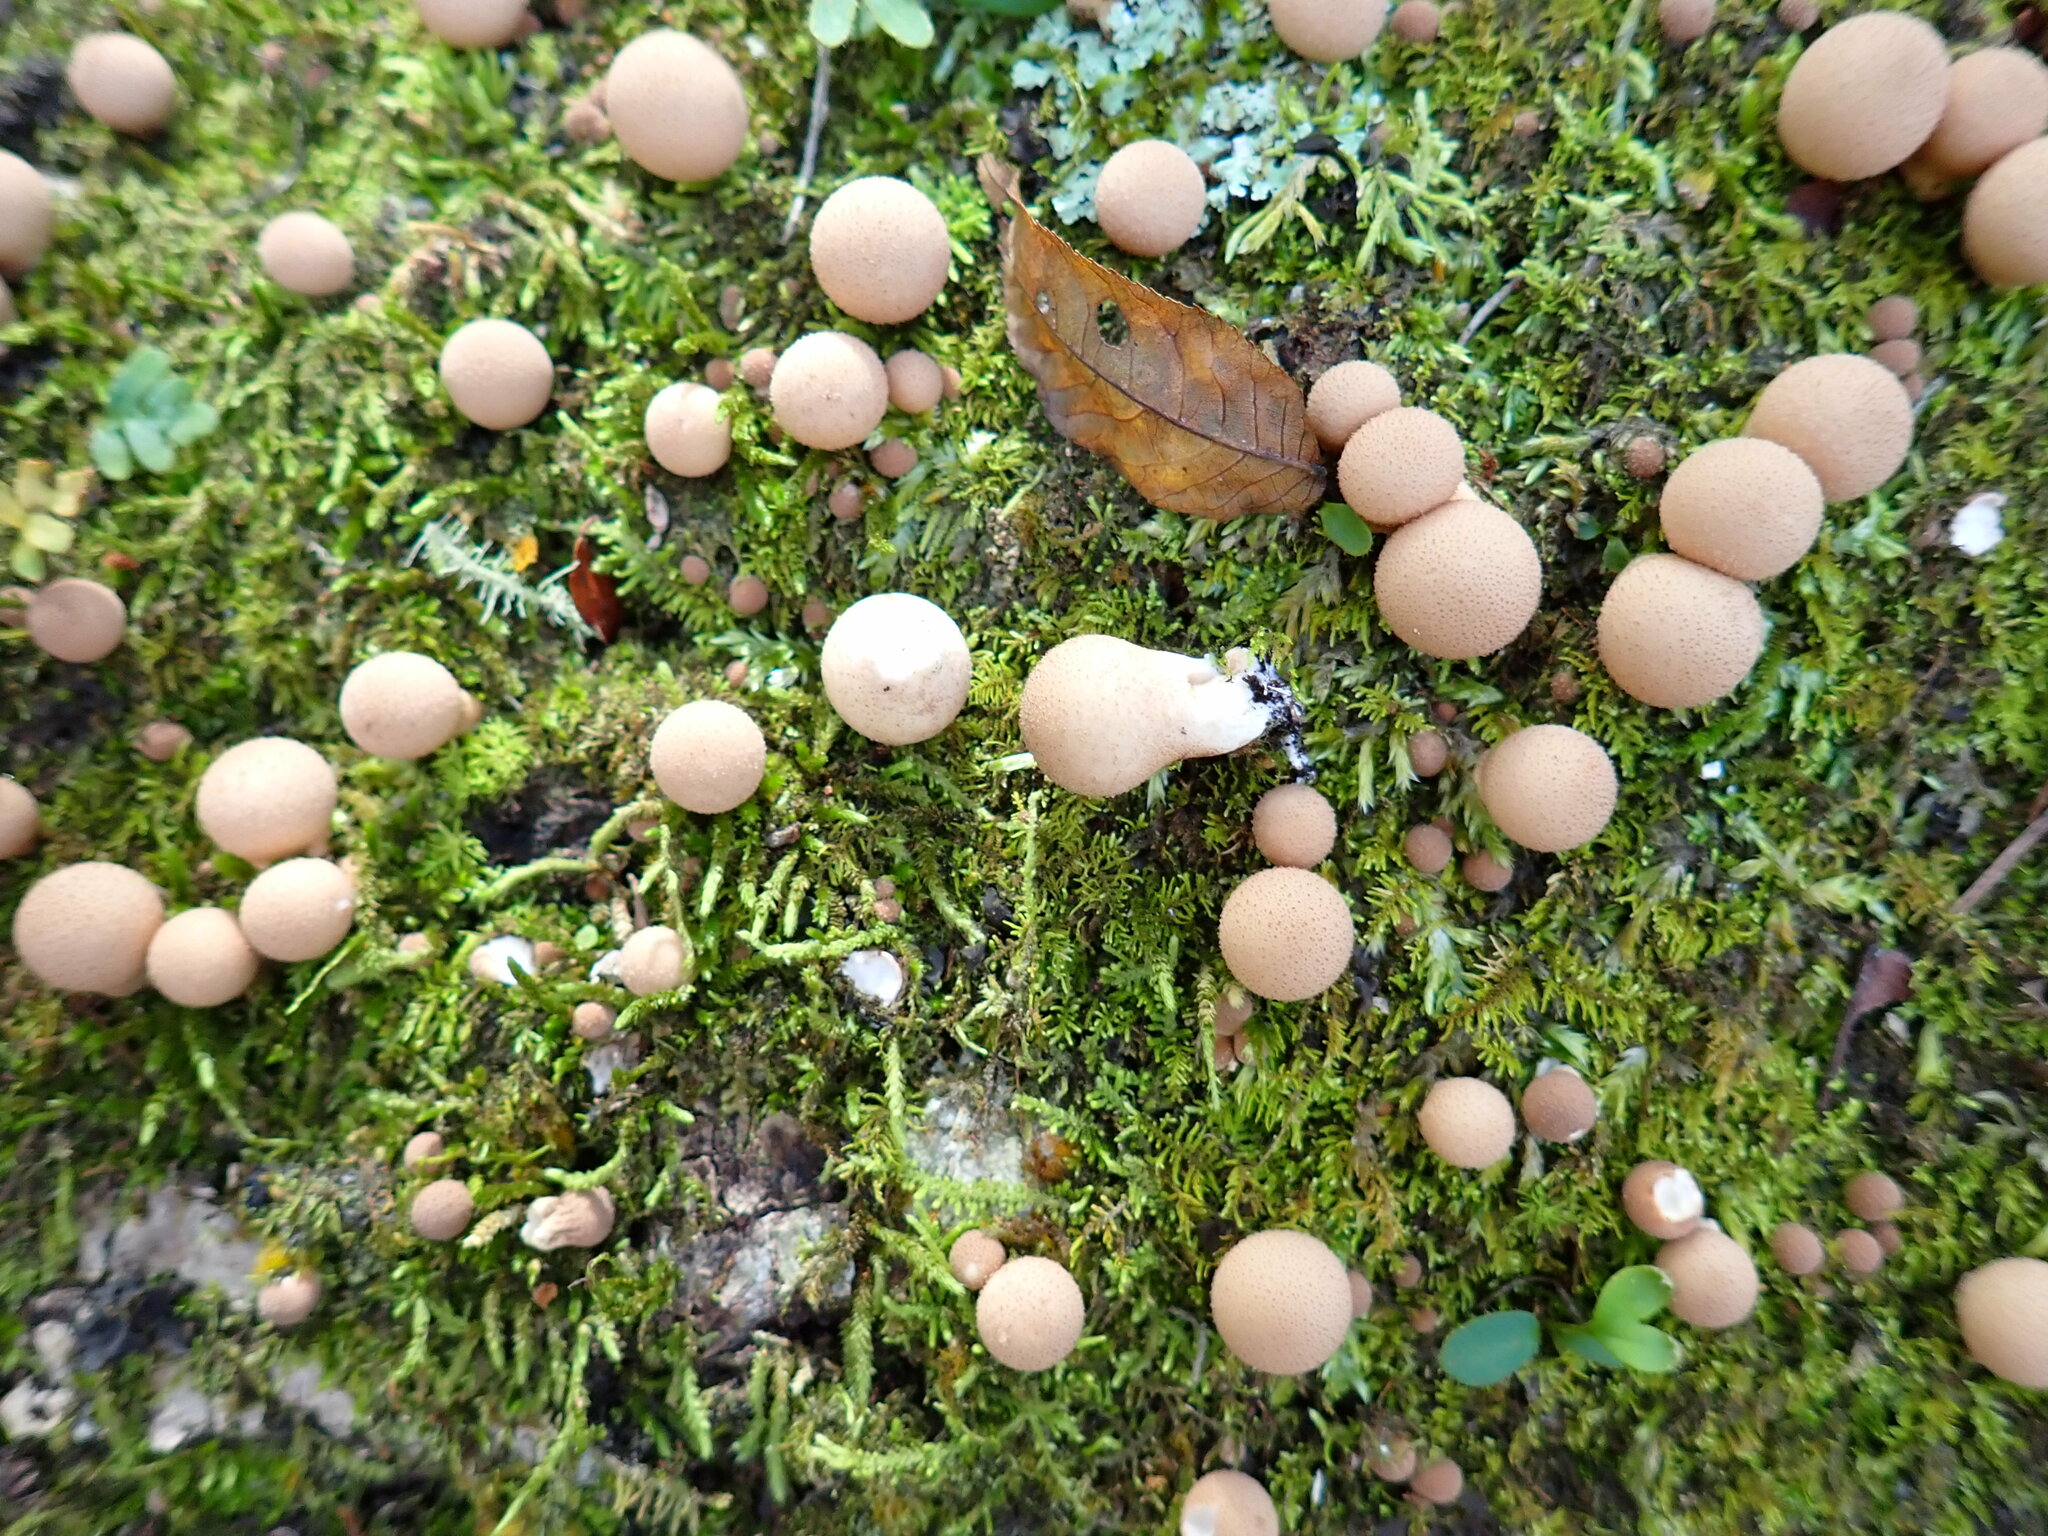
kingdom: Fungi
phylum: Basidiomycota
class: Agaricomycetes
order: Agaricales
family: Lycoperdaceae
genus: Apioperdon
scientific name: Apioperdon pyriforme
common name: Pear-shaped puffball
